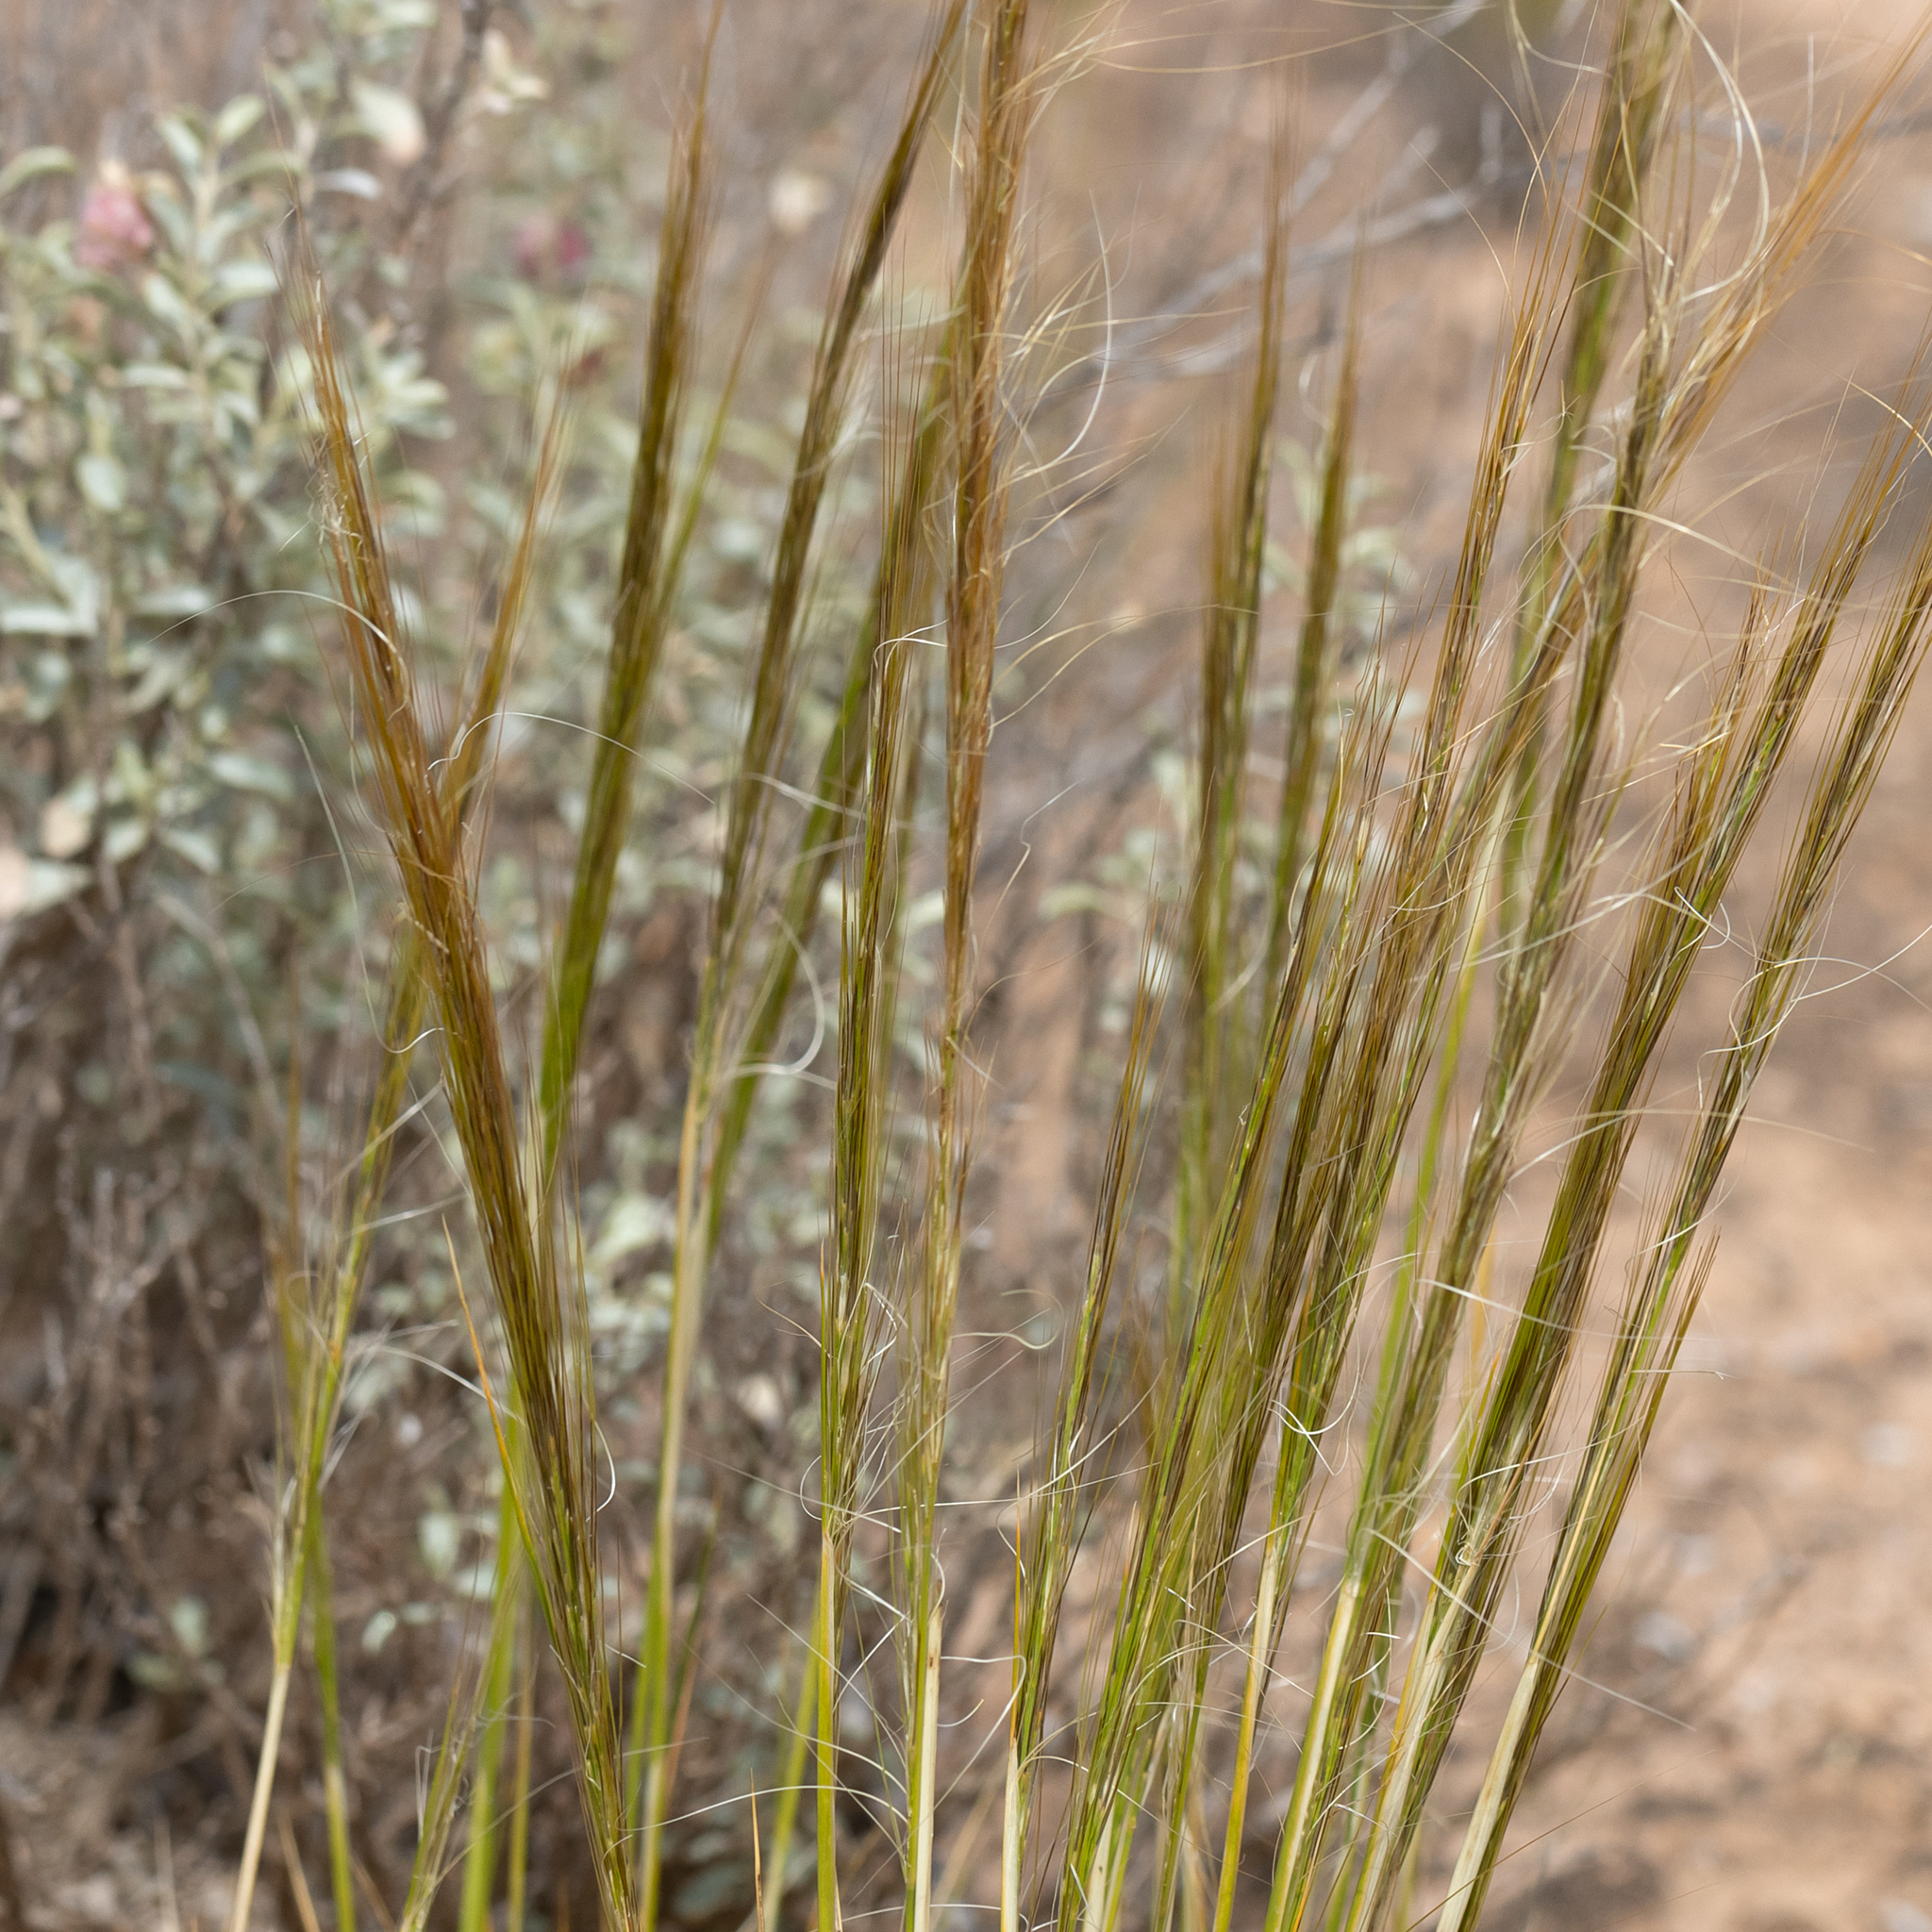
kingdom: Plantae
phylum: Tracheophyta
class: Liliopsida
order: Poales
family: Poaceae
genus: Austrostipa
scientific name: Austrostipa nitida
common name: Balcarra grass
